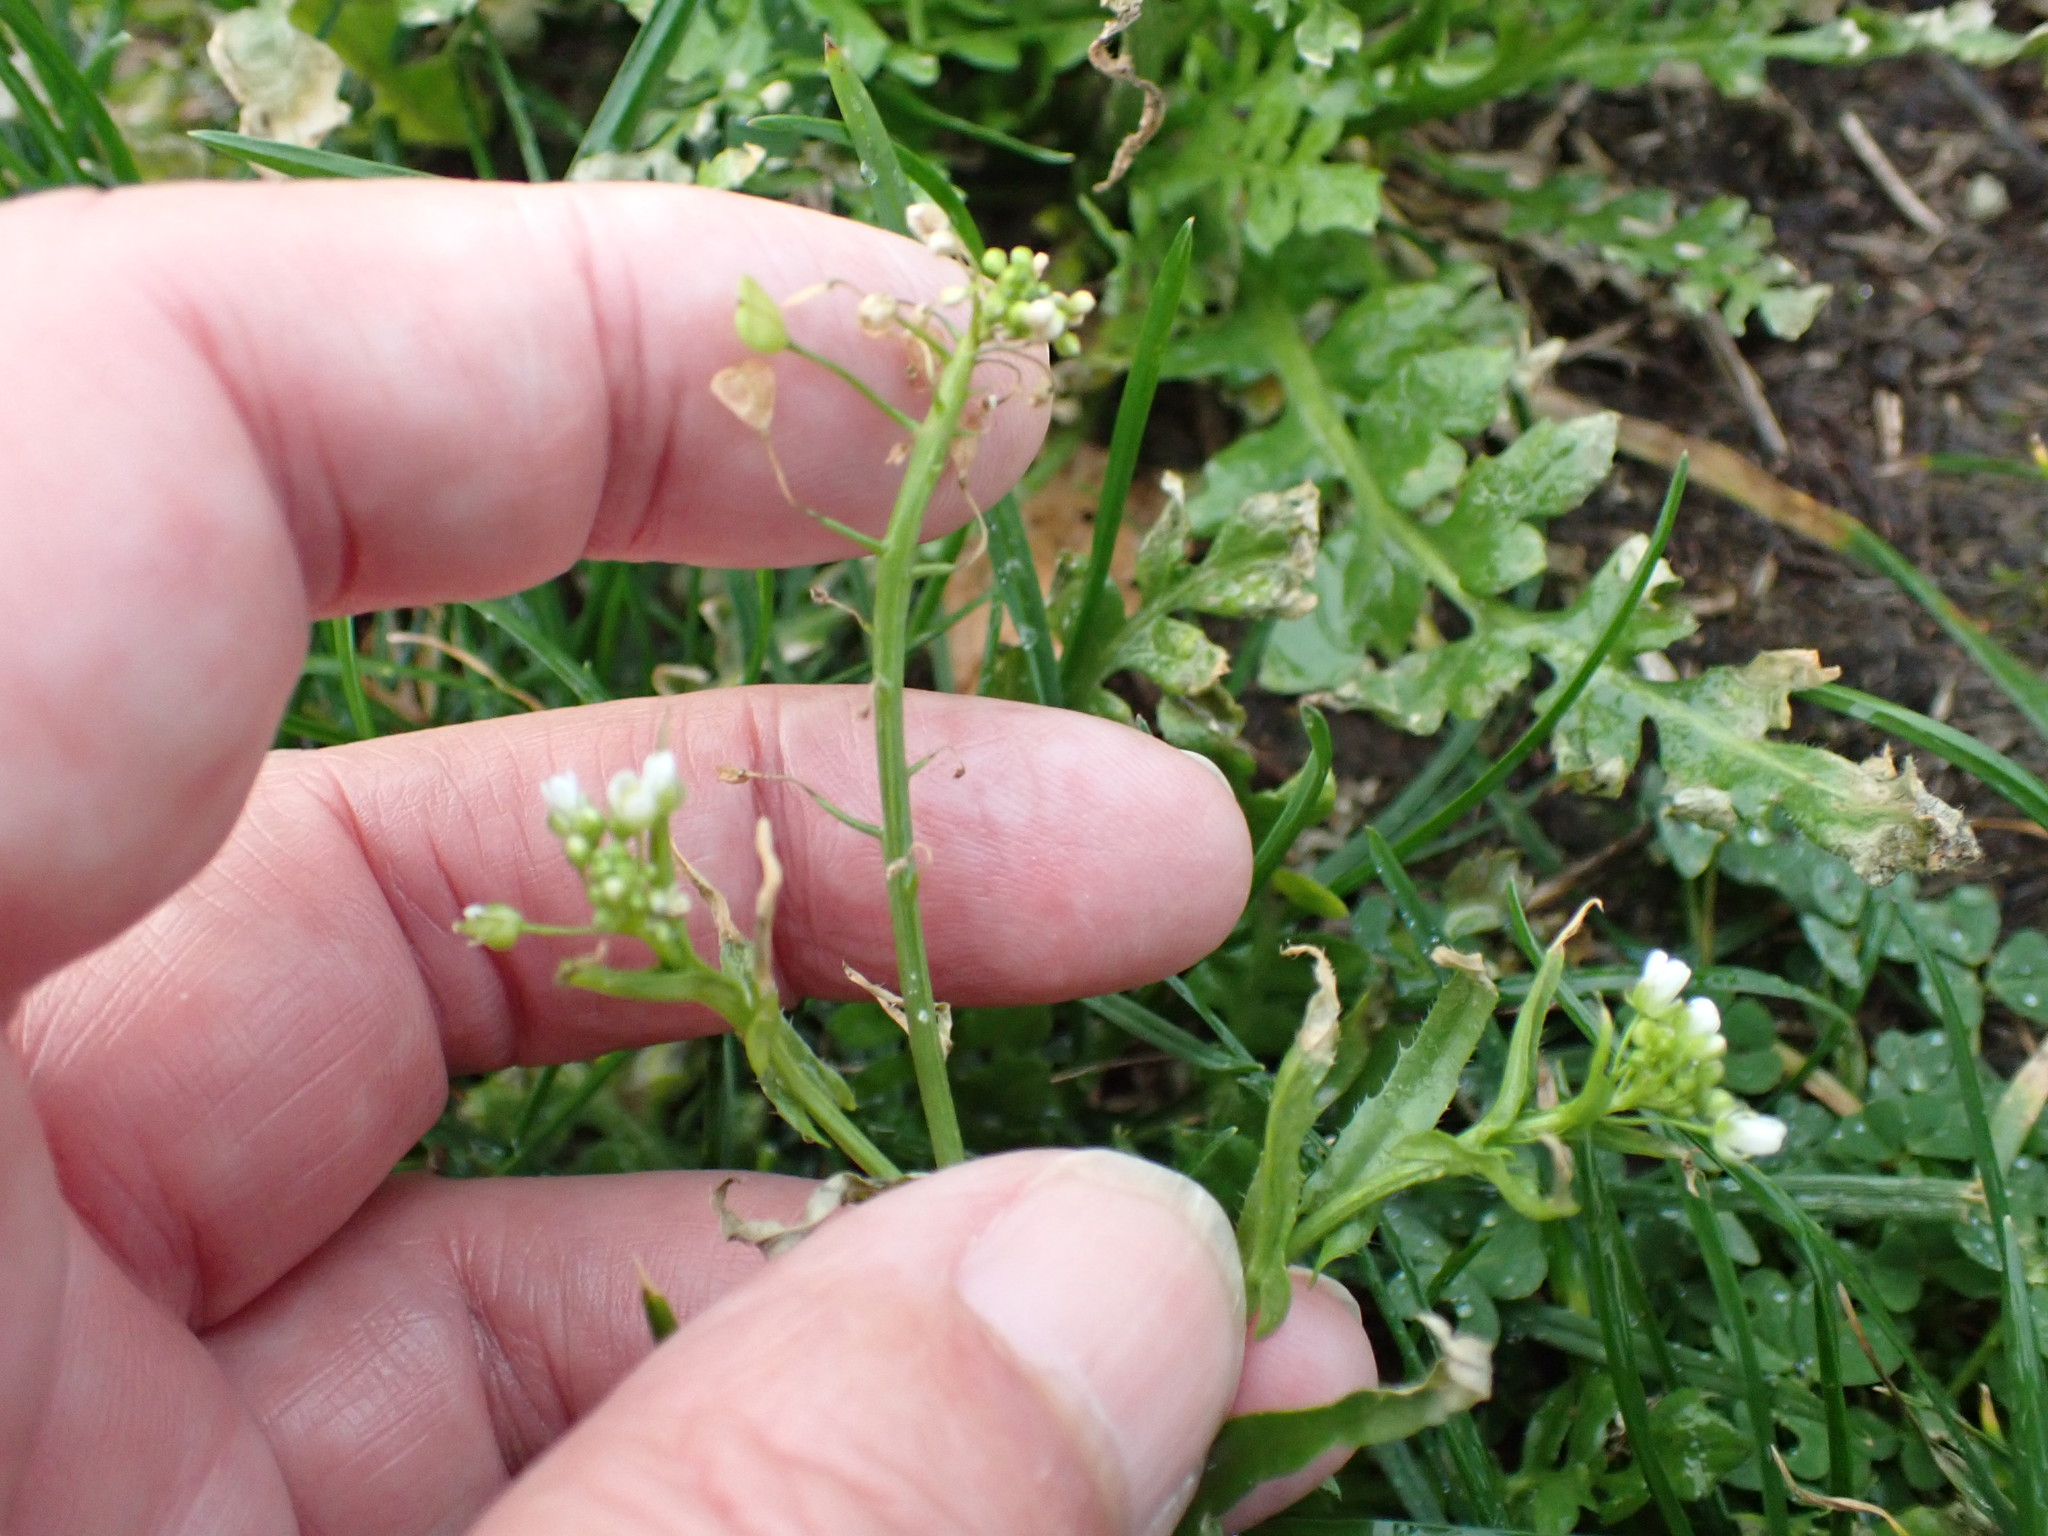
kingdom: Plantae
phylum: Tracheophyta
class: Magnoliopsida
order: Brassicales
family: Brassicaceae
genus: Capsella
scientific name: Capsella bursa-pastoris
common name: Shepherd's purse
